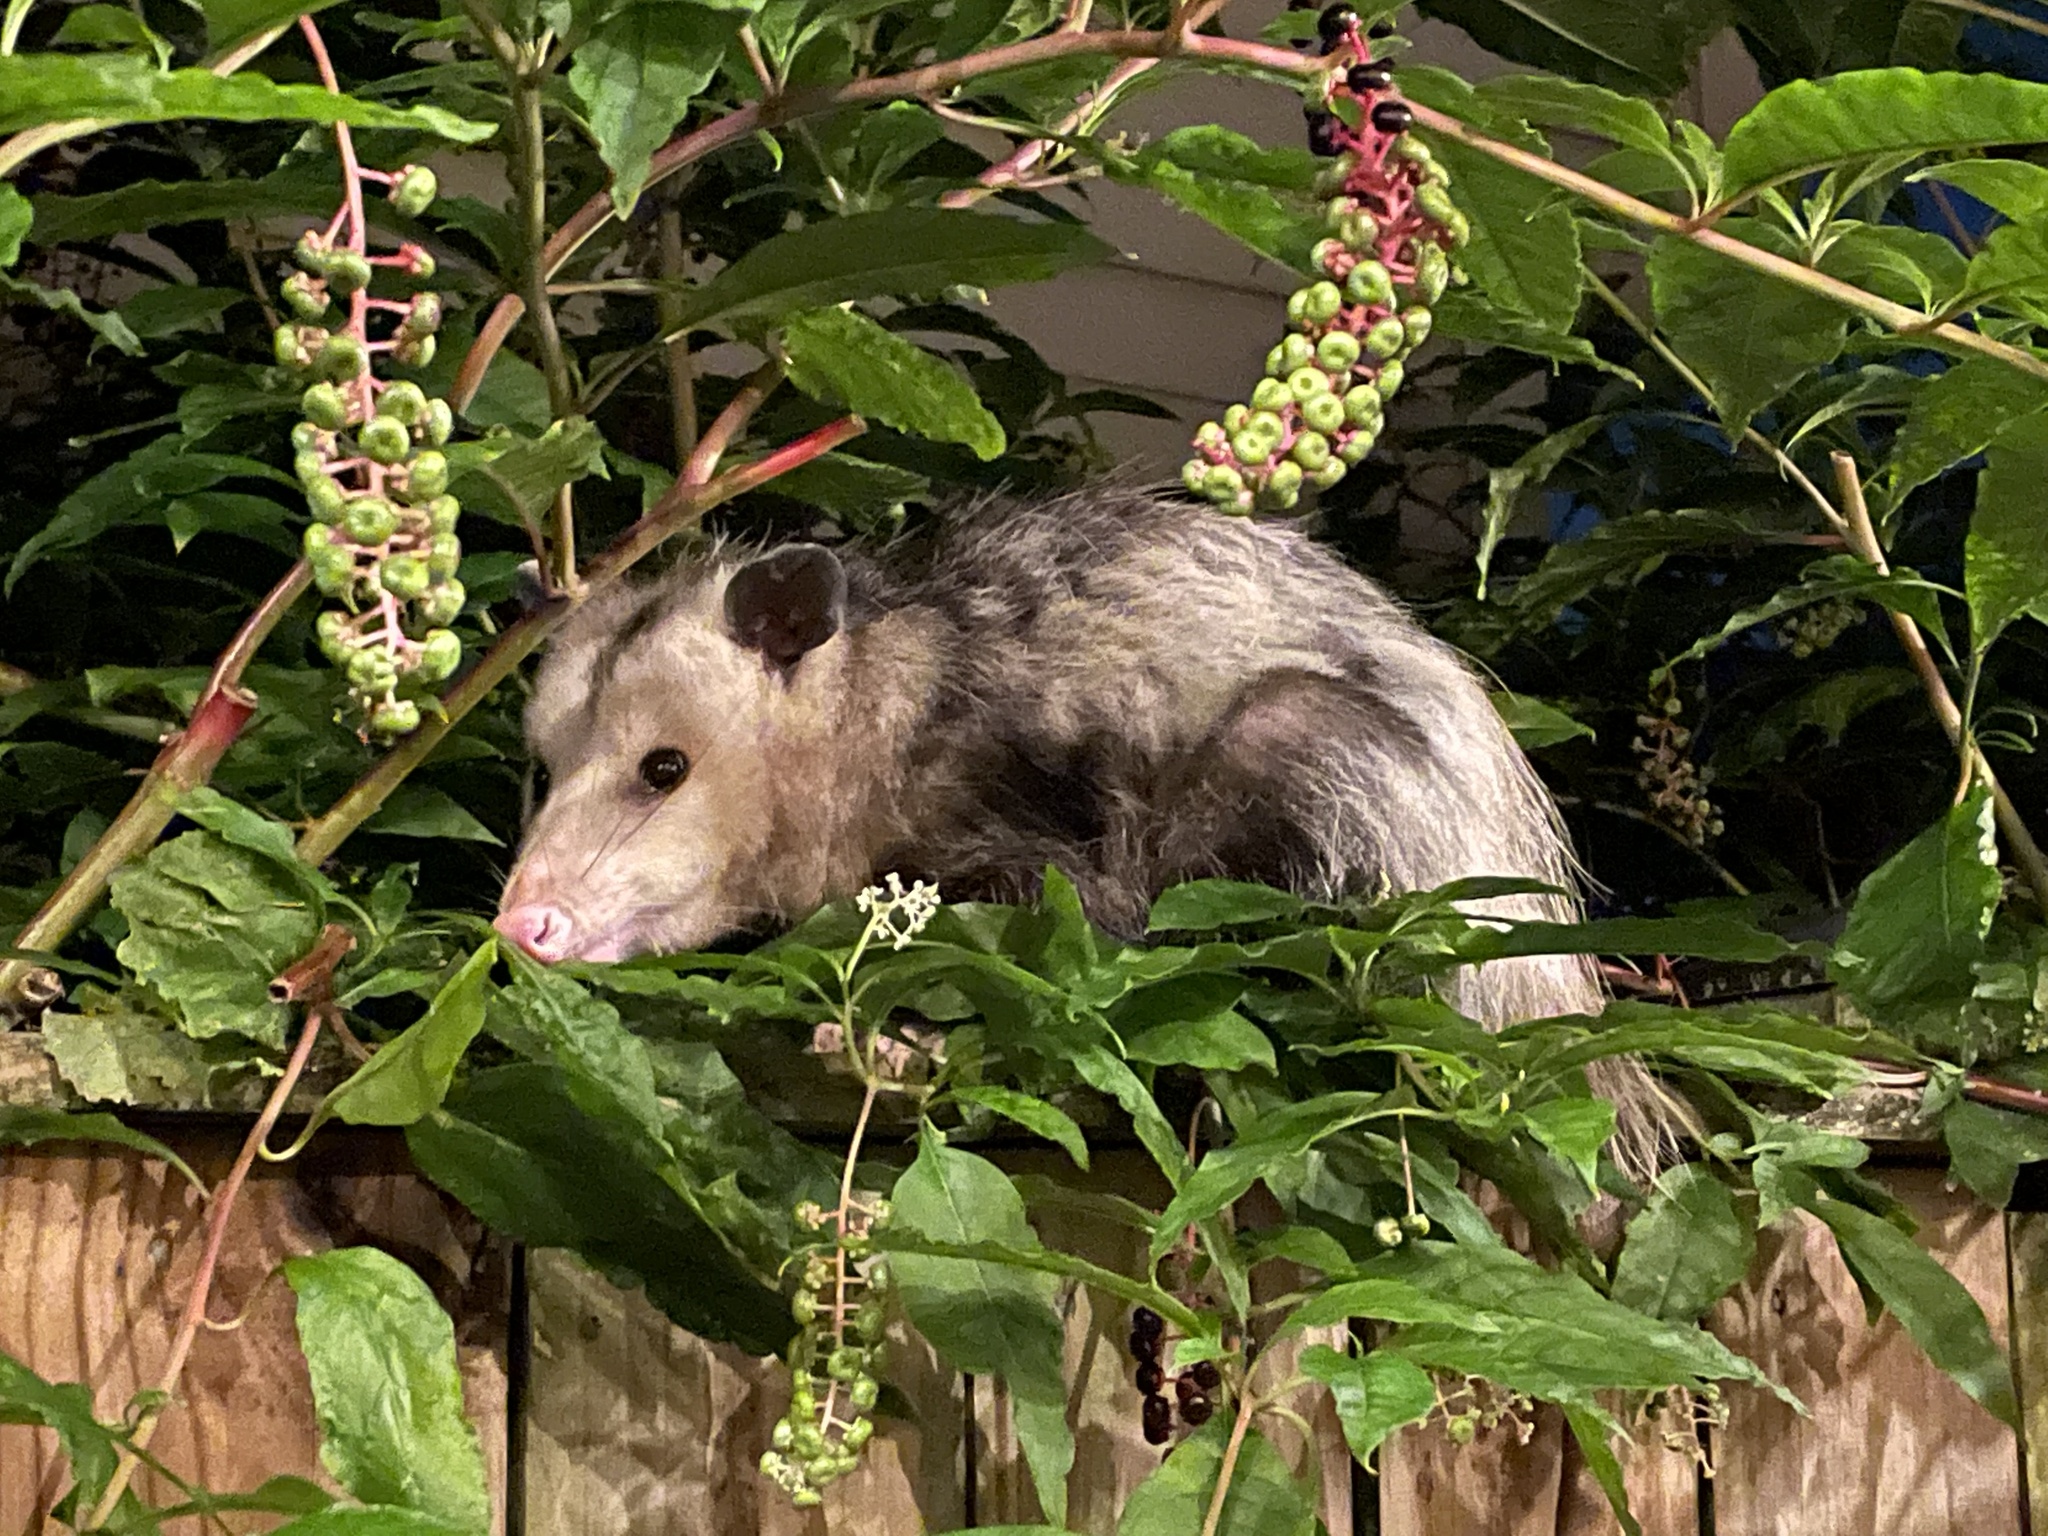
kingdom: Animalia
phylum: Chordata
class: Mammalia
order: Didelphimorphia
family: Didelphidae
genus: Didelphis
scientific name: Didelphis virginiana
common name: Virginia opossum
